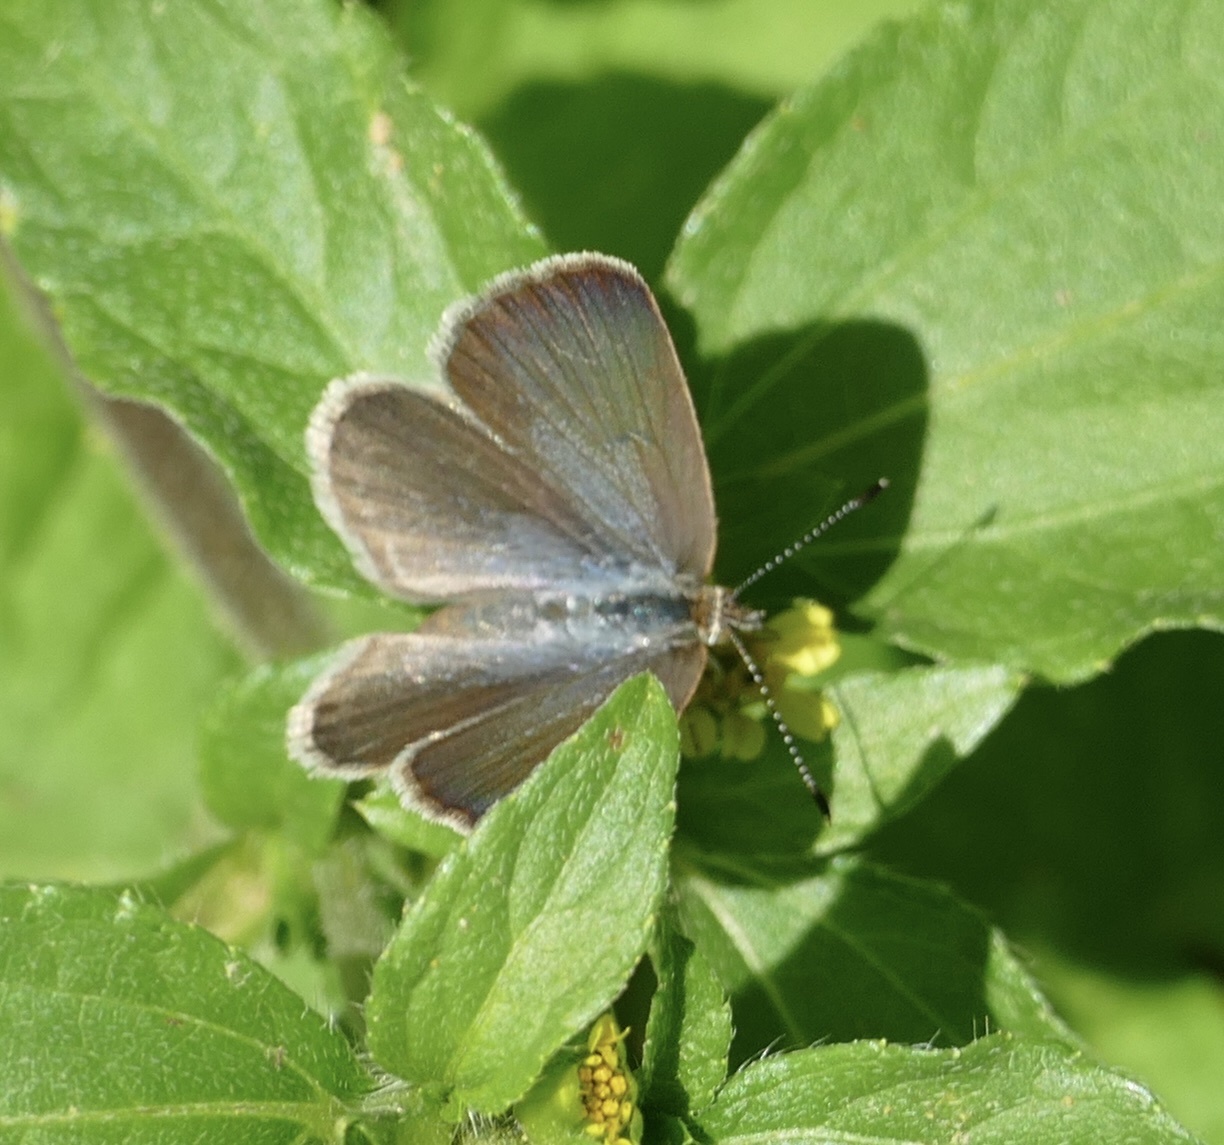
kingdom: Animalia
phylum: Arthropoda
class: Insecta
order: Lepidoptera
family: Lycaenidae
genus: Zizeeria
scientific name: Zizeeria knysna
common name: African grass blue
